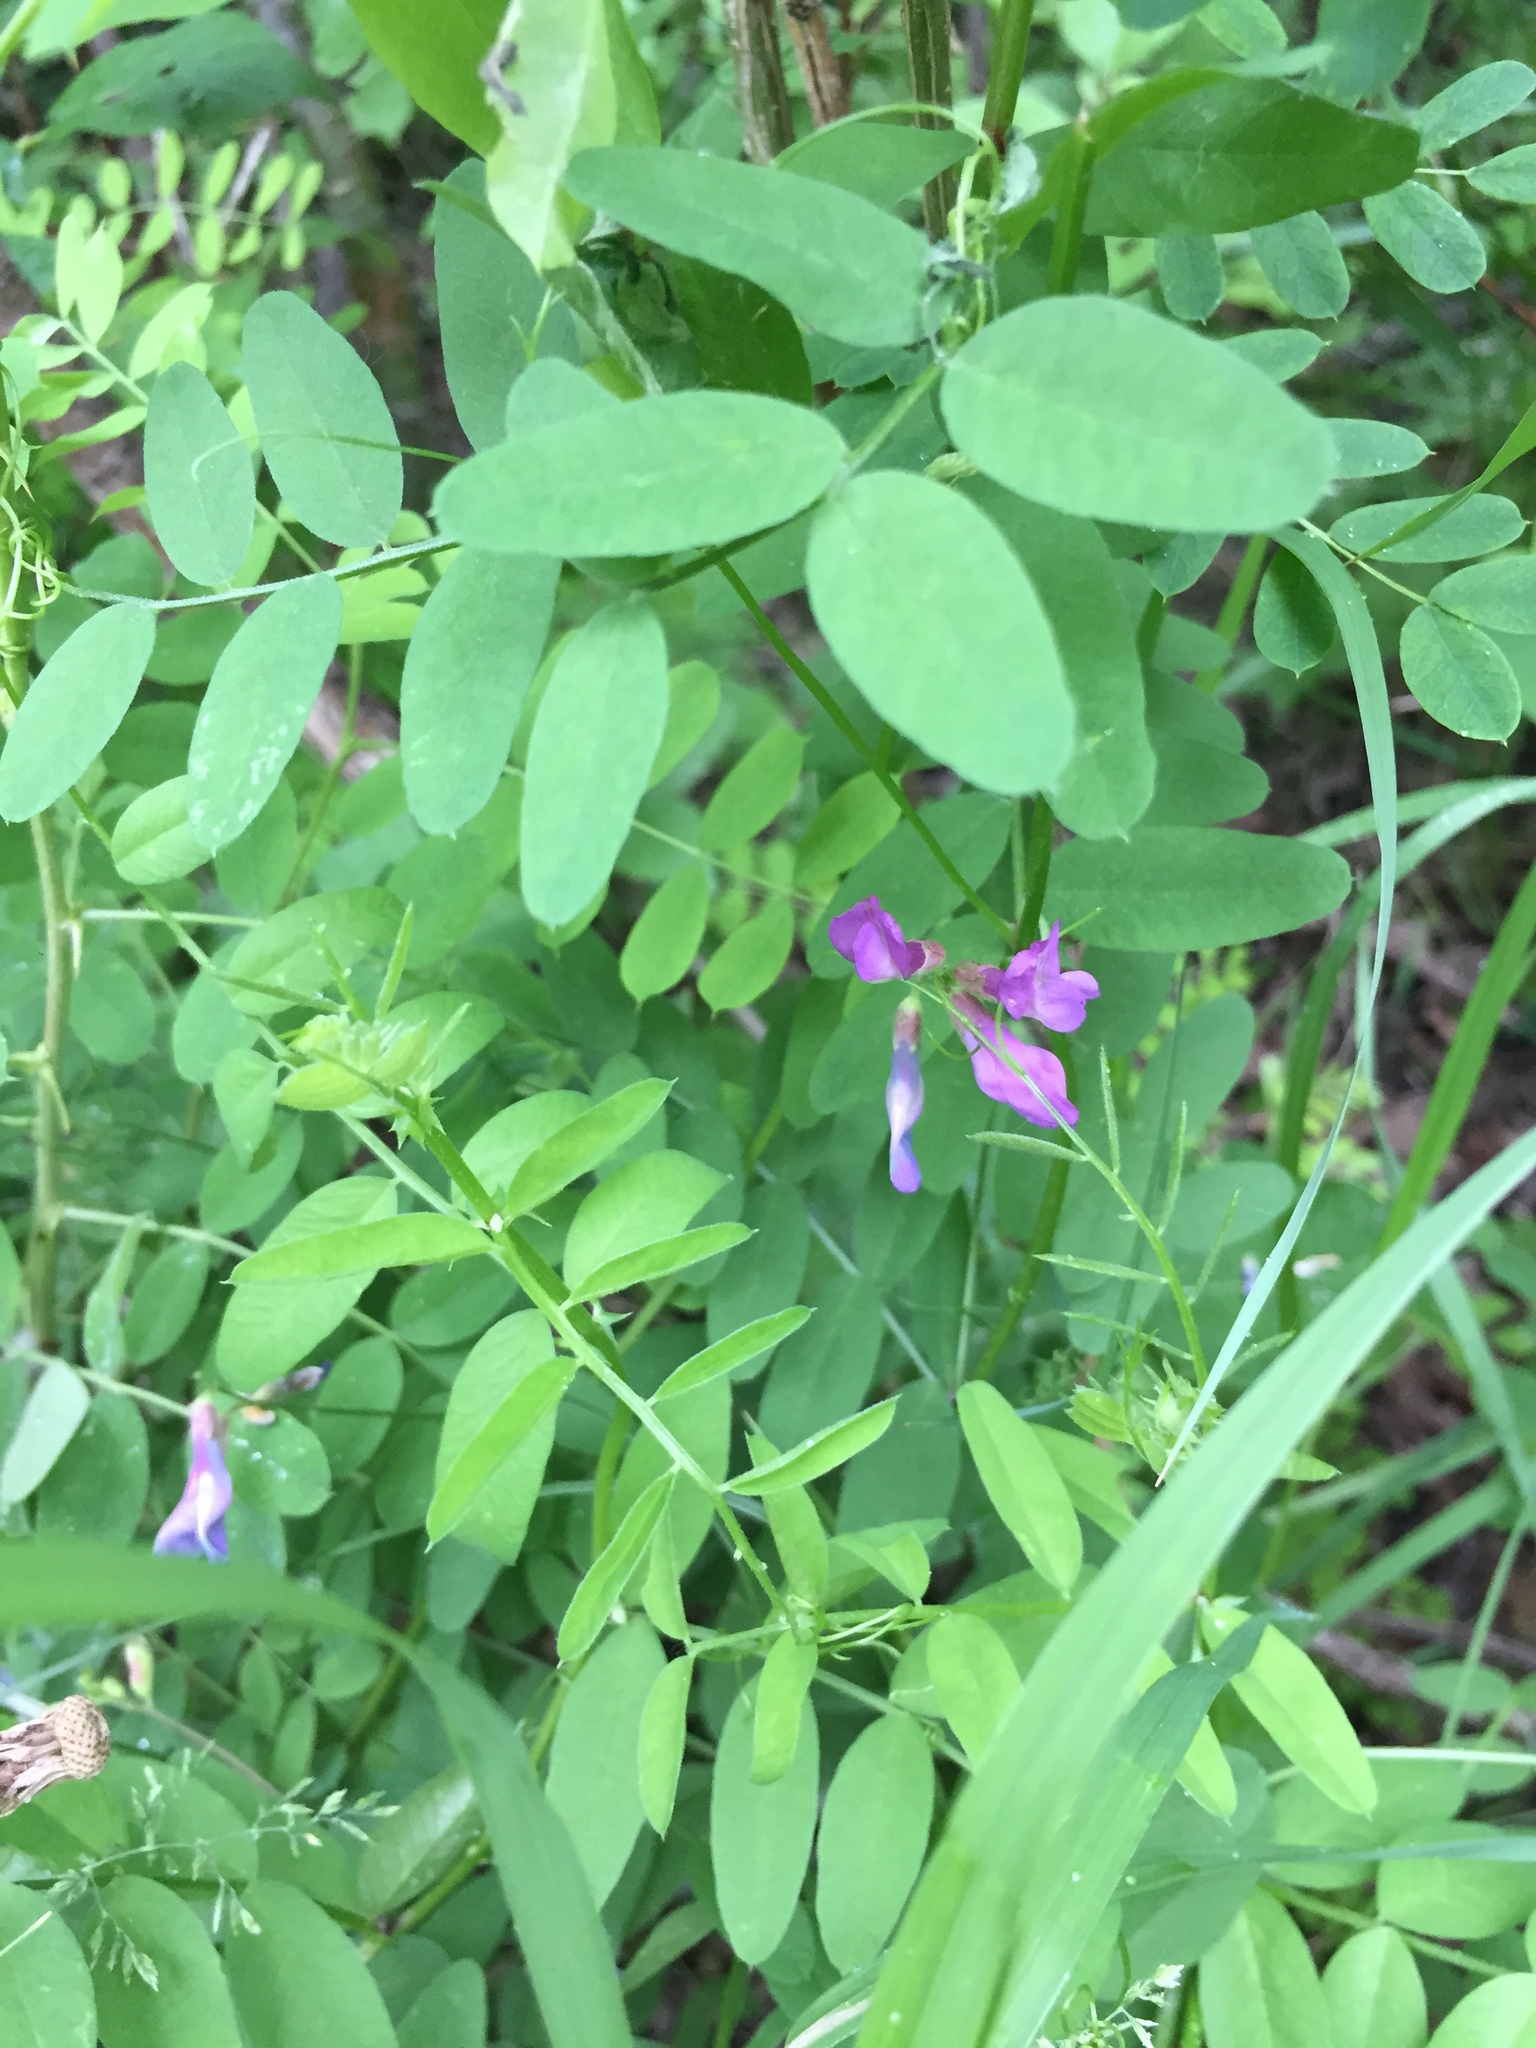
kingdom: Plantae
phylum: Tracheophyta
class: Magnoliopsida
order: Fabales
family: Fabaceae
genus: Vicia
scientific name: Vicia americana
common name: American vetch
